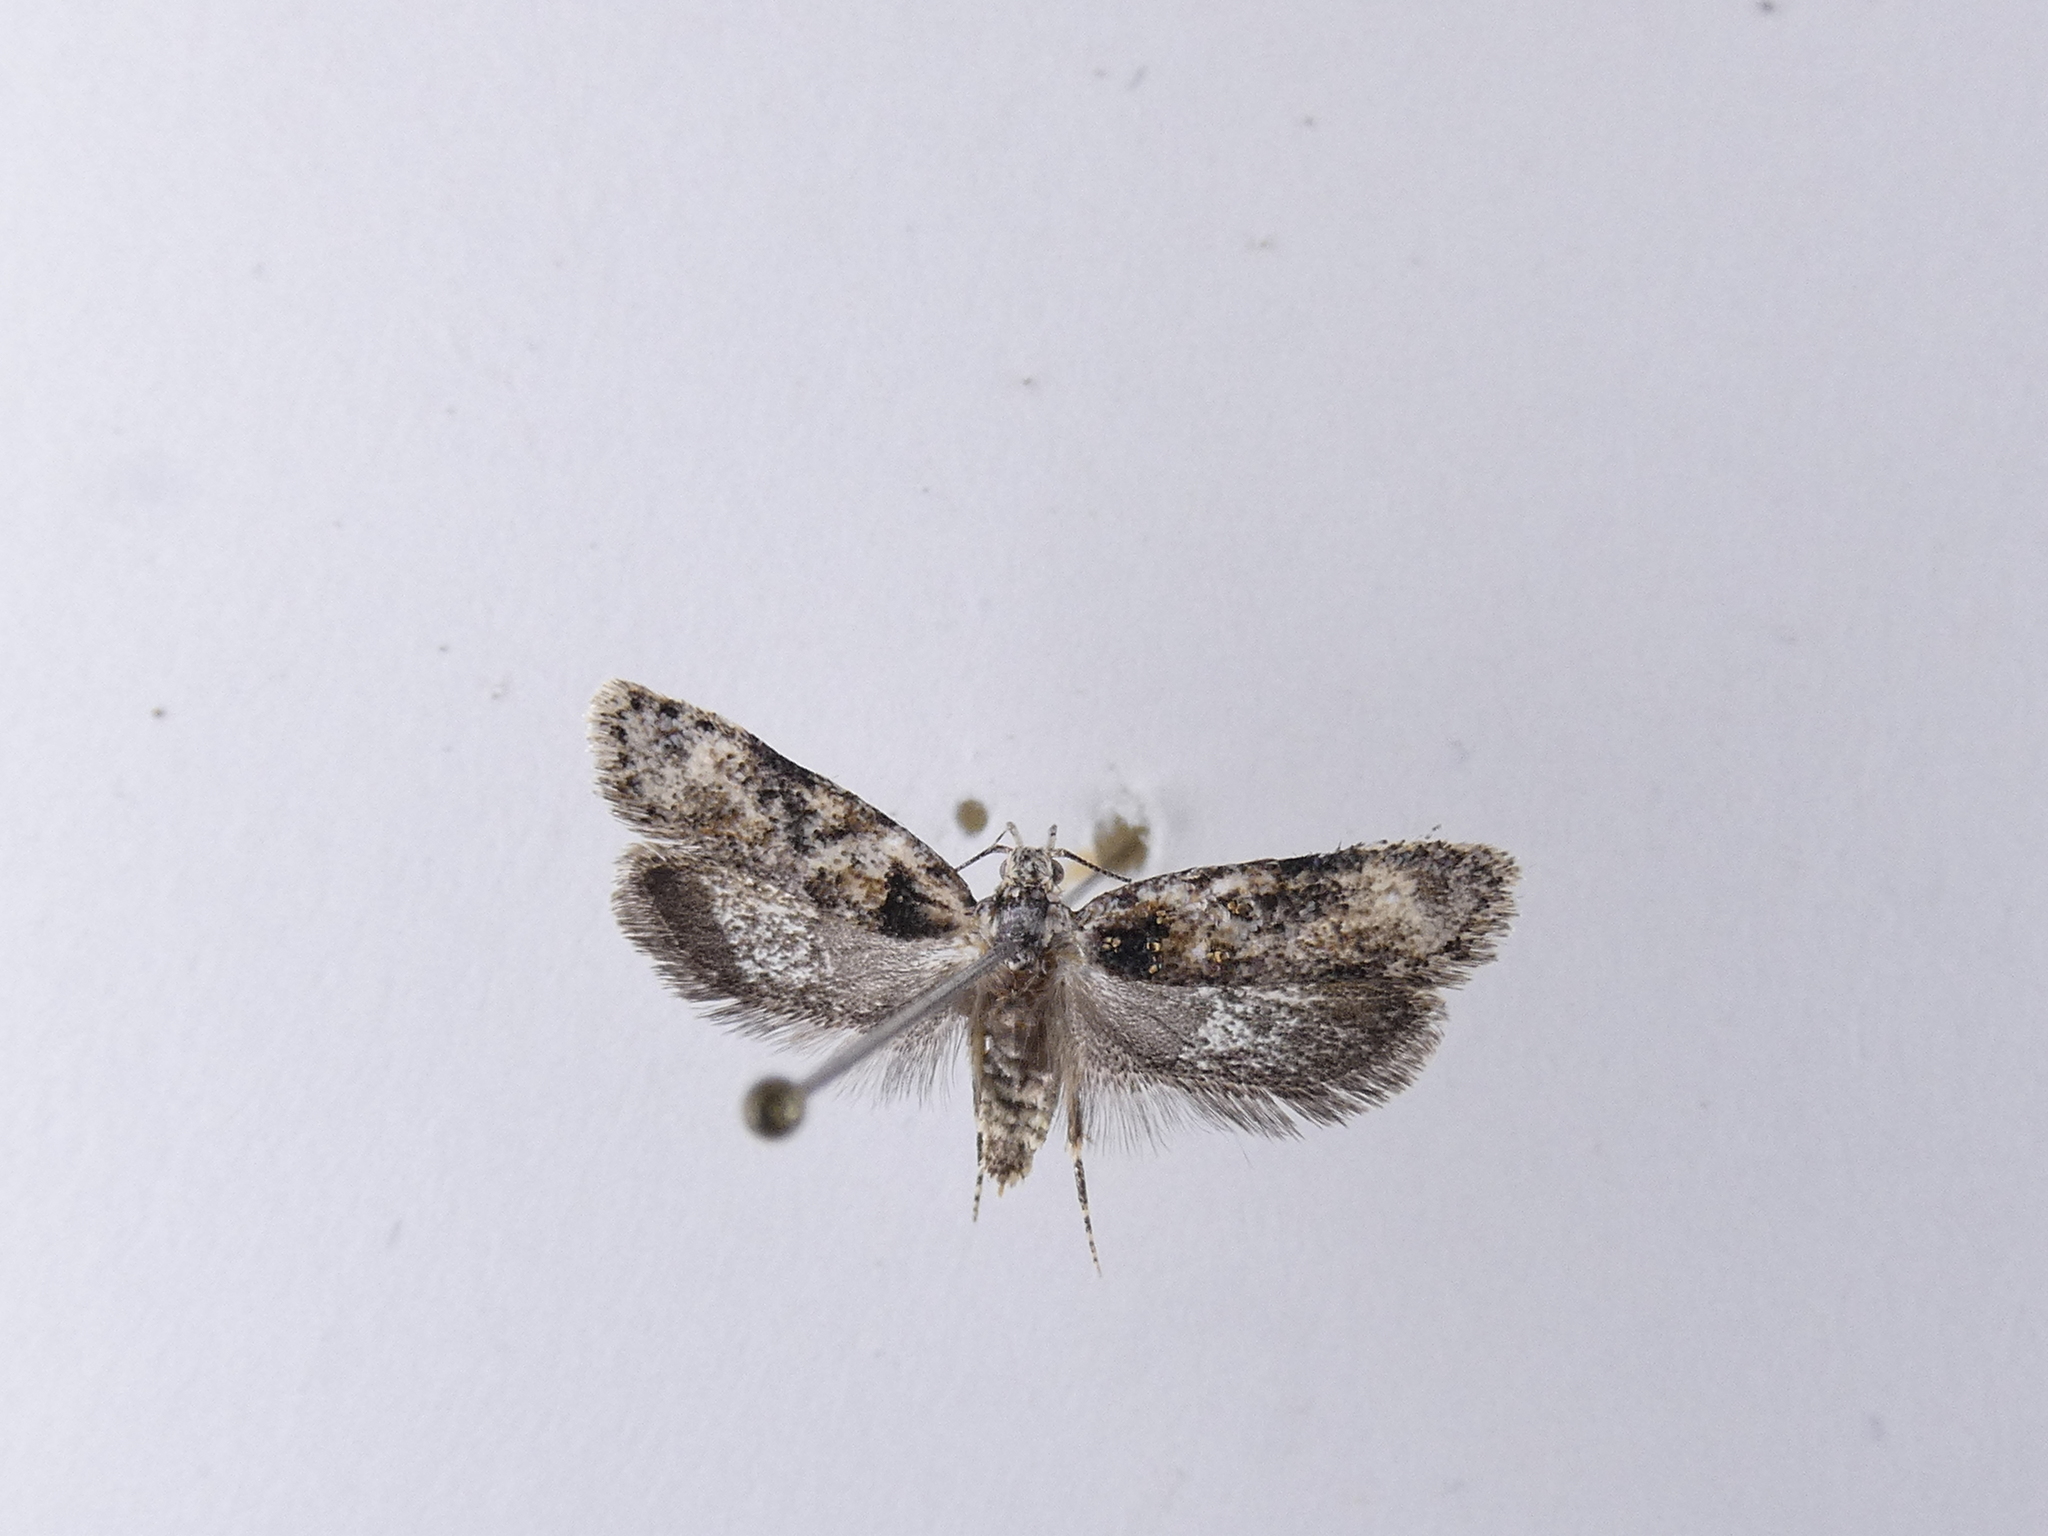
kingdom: Animalia
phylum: Arthropoda
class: Insecta
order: Lepidoptera
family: Oecophoridae
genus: Izatha
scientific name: Izatha phaeoptila
